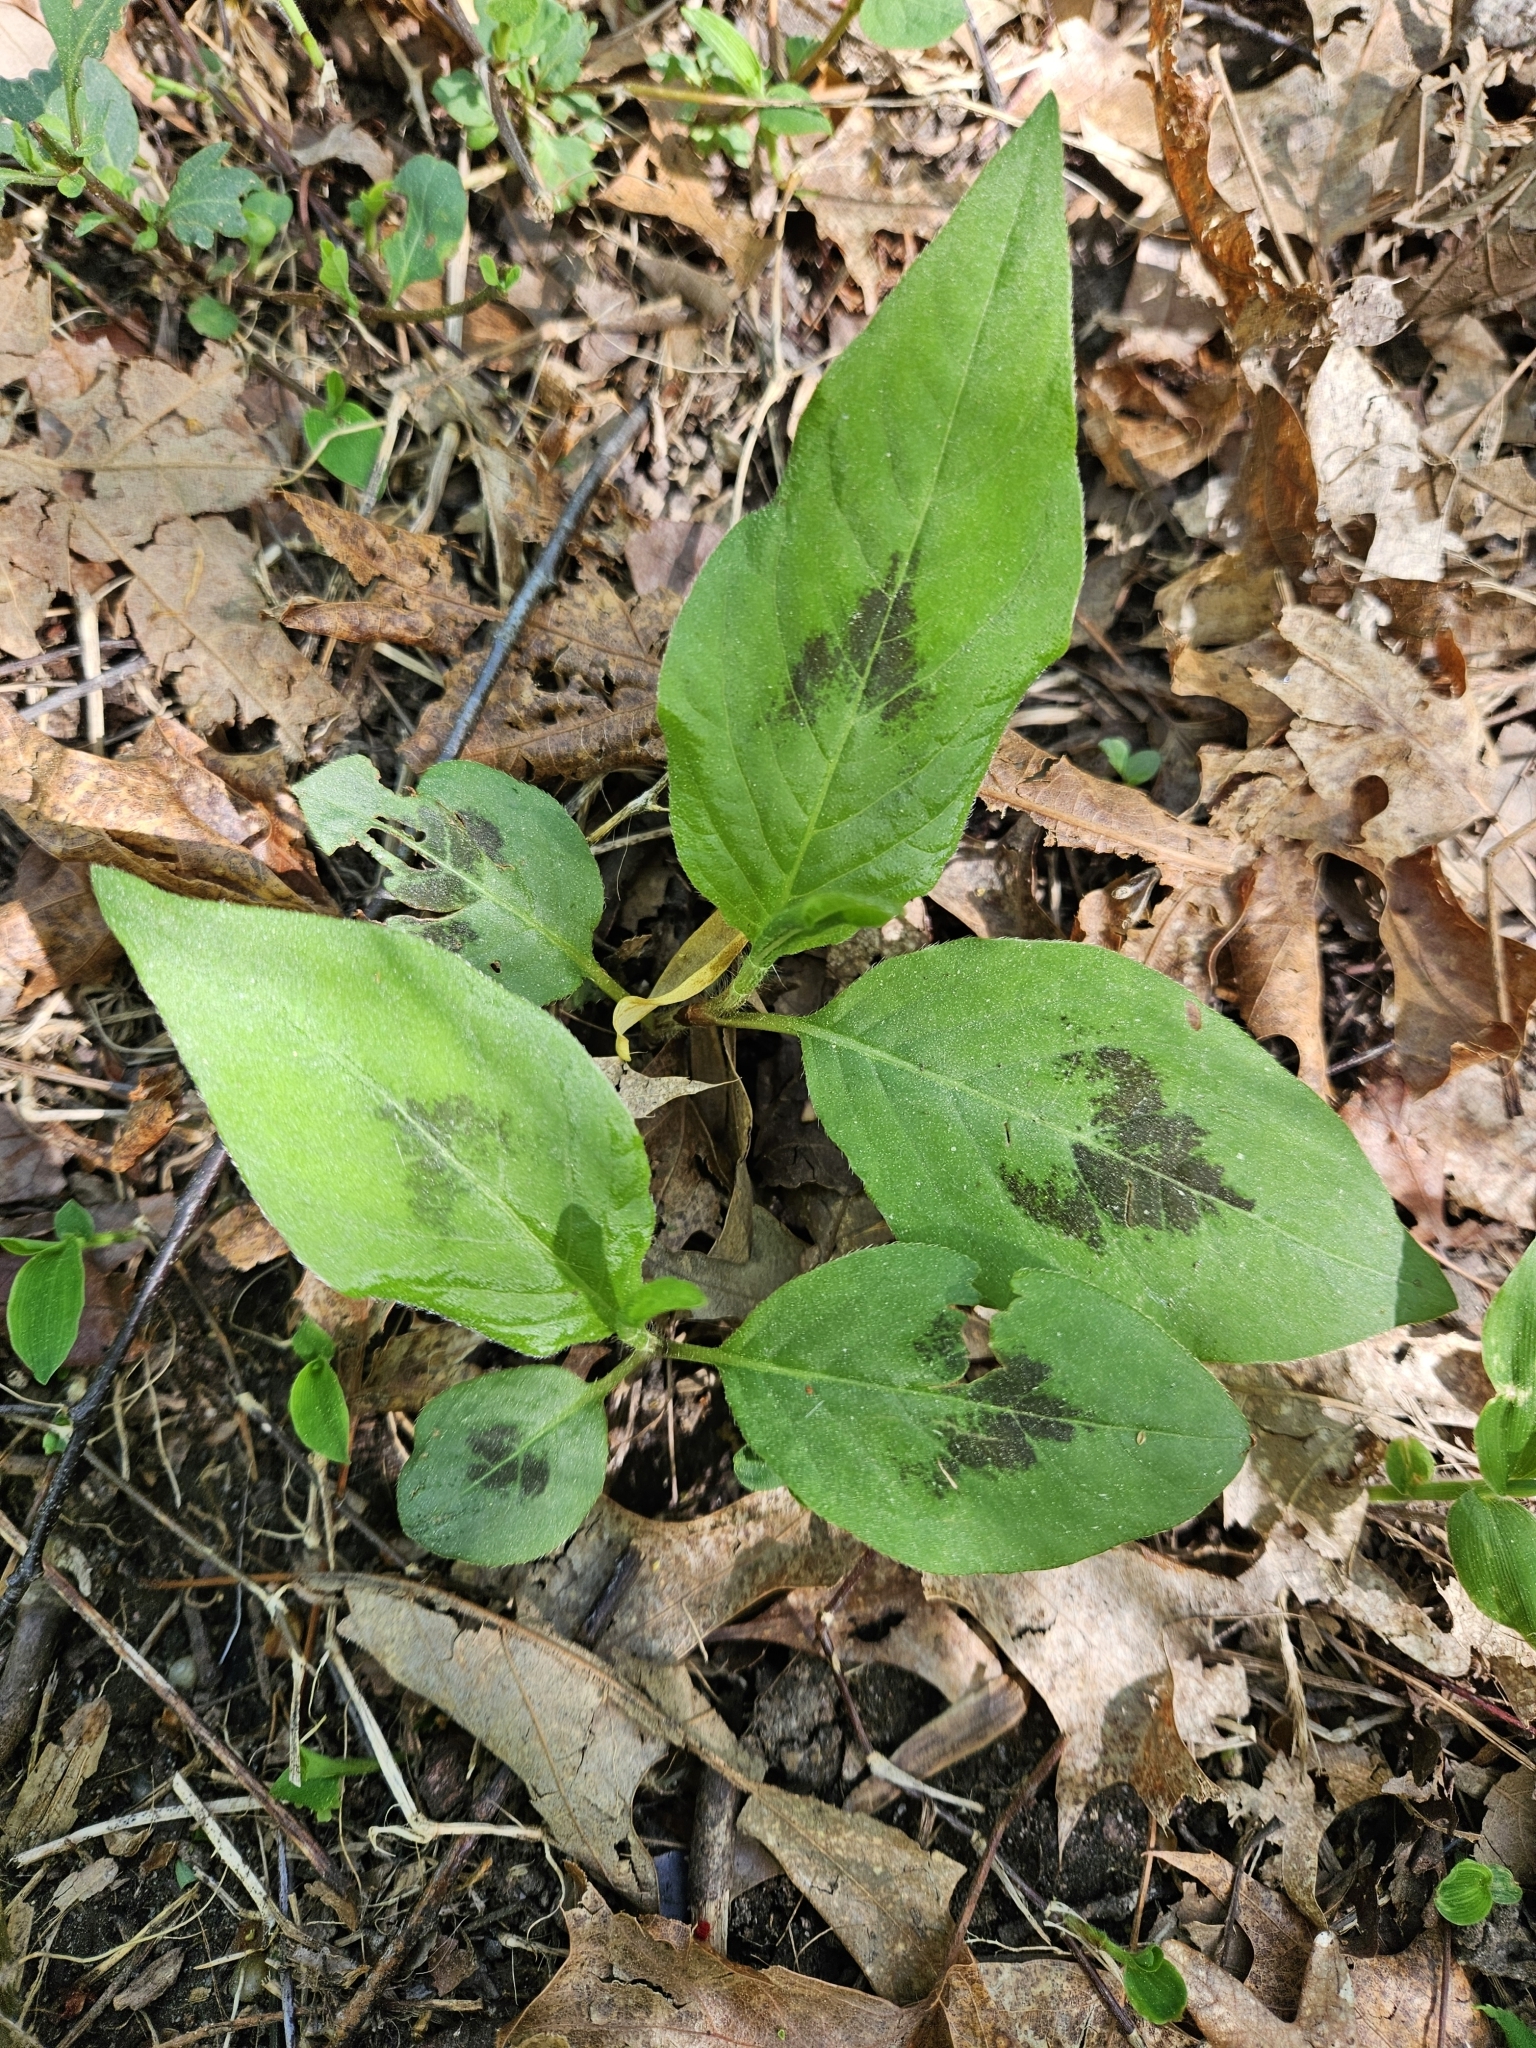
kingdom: Plantae
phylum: Tracheophyta
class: Magnoliopsida
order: Caryophyllales
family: Polygonaceae
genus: Persicaria
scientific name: Persicaria virginiana
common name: Jumpseed
